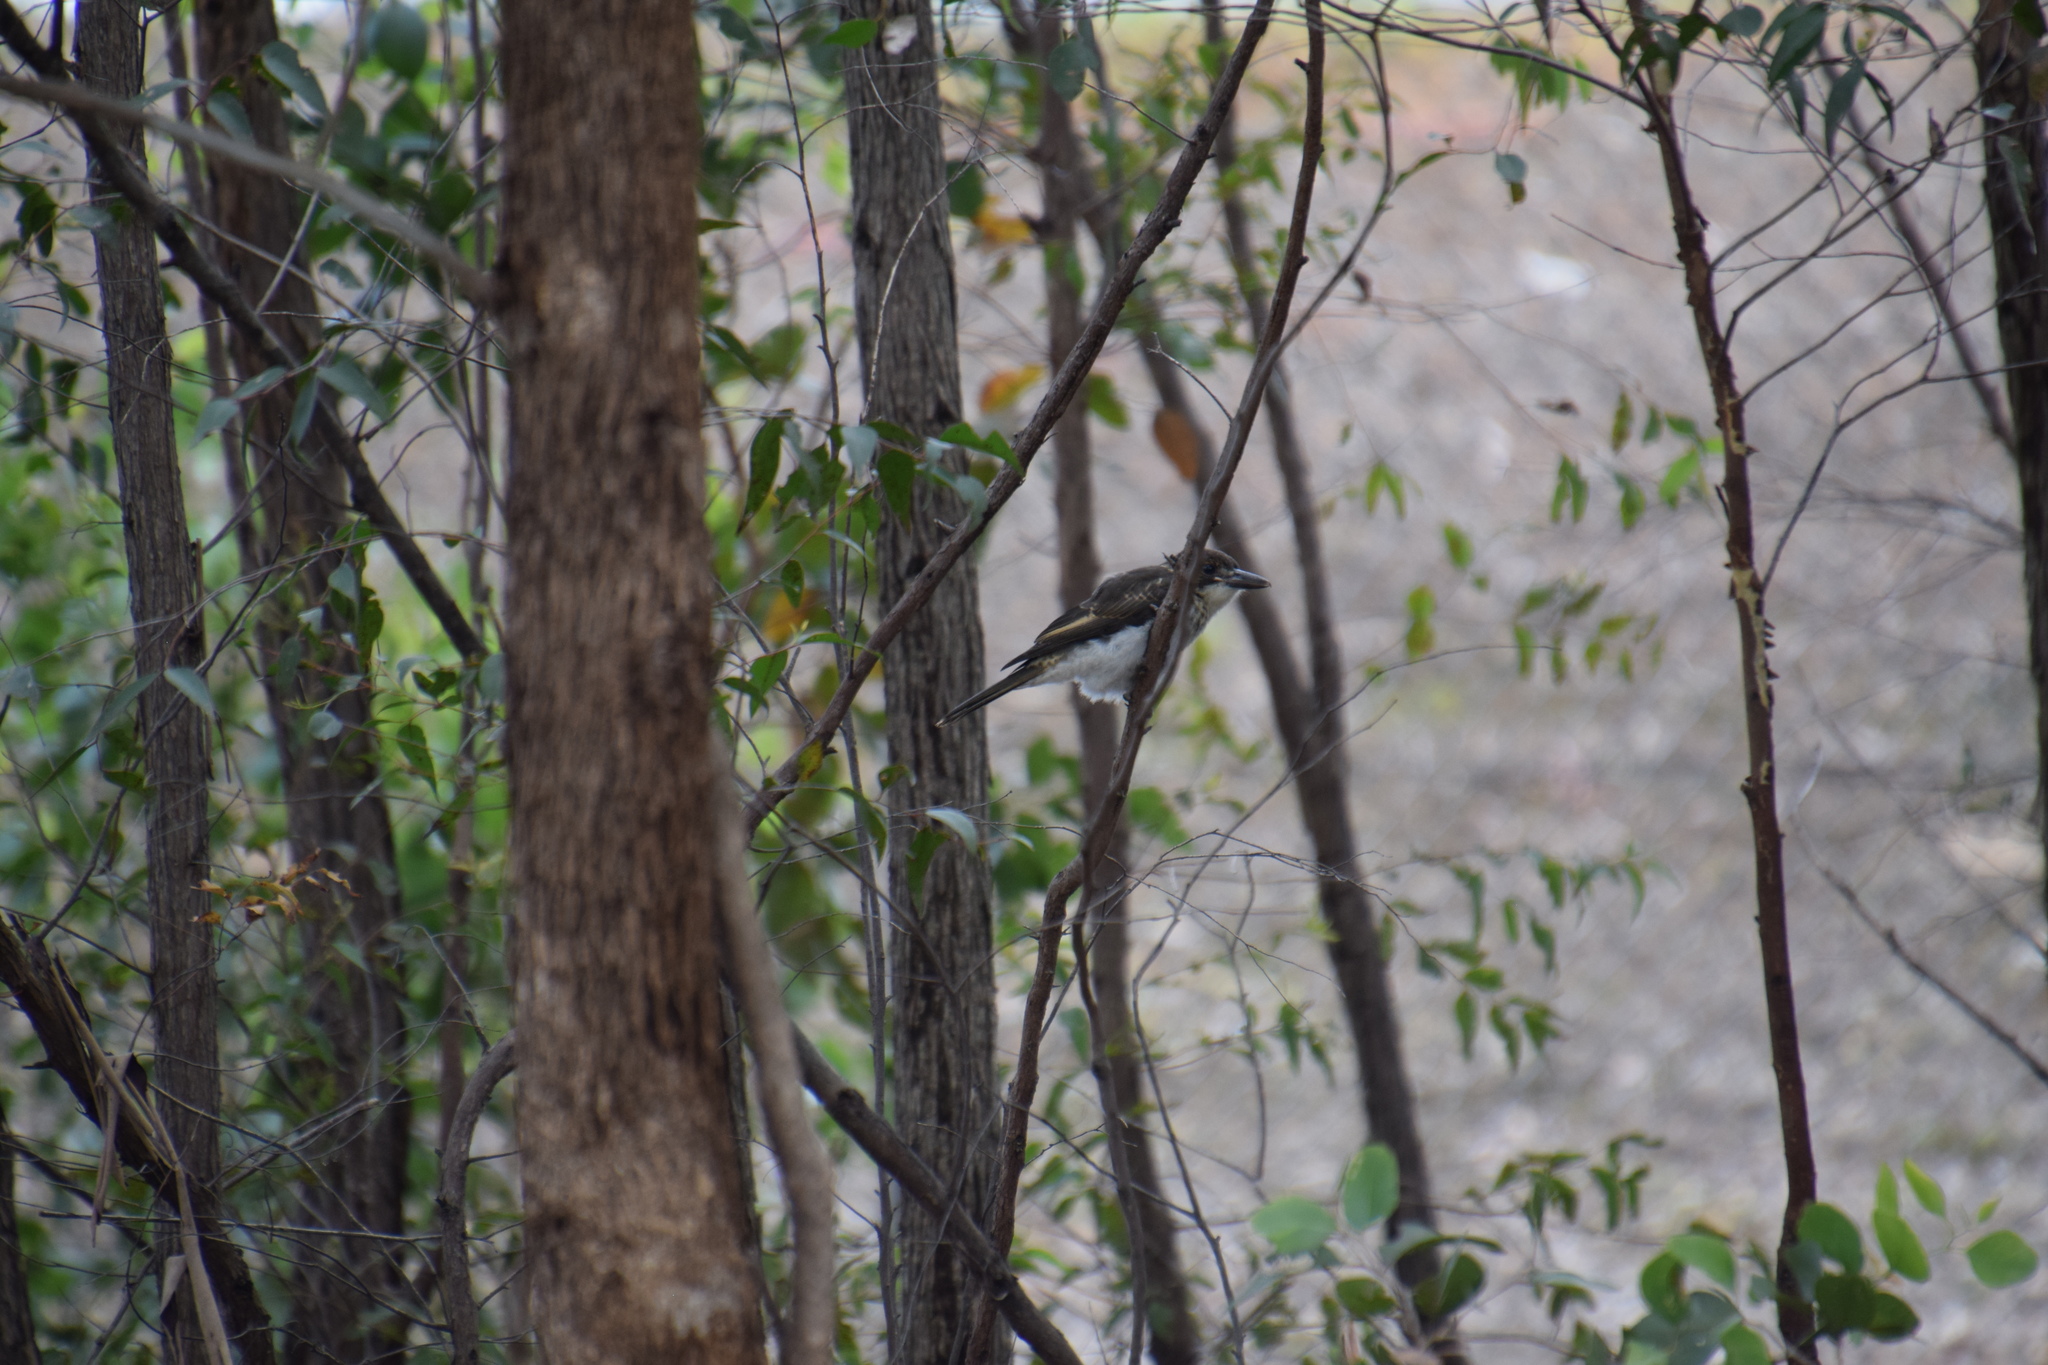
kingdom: Animalia
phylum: Chordata
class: Aves
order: Passeriformes
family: Cracticidae
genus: Cracticus
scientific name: Cracticus torquatus
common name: Grey butcherbird
